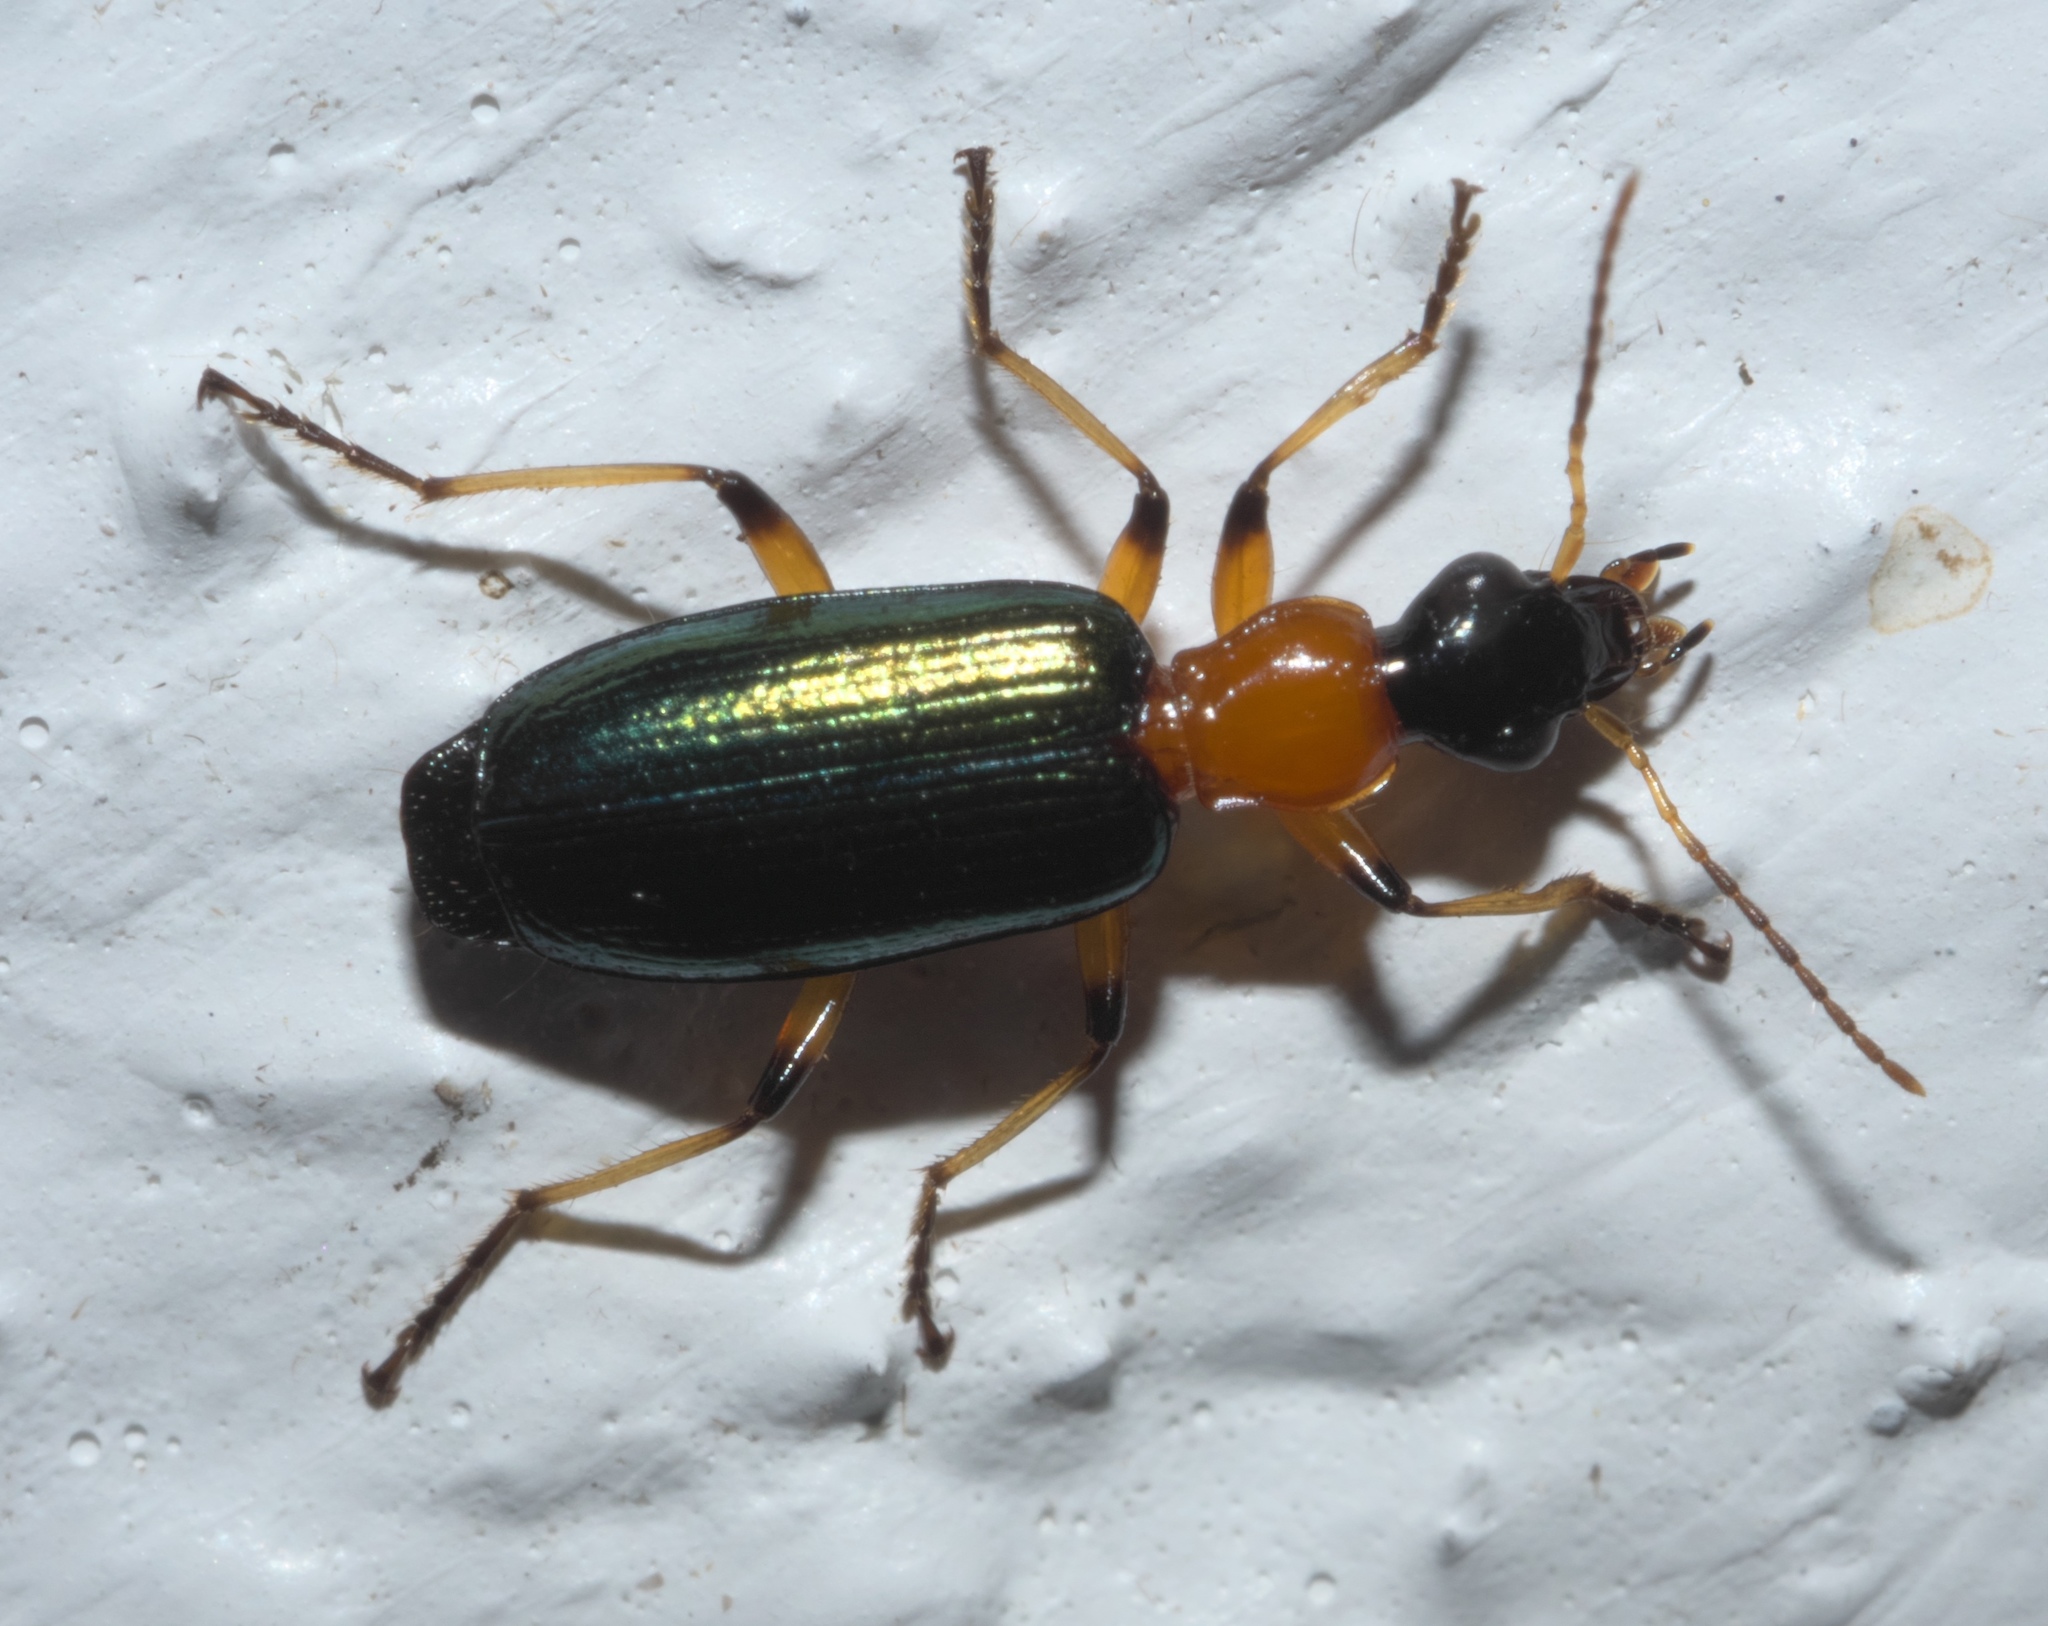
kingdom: Animalia
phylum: Arthropoda
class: Insecta
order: Coleoptera
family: Carabidae
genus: Calleida
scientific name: Calleida cordicollis
